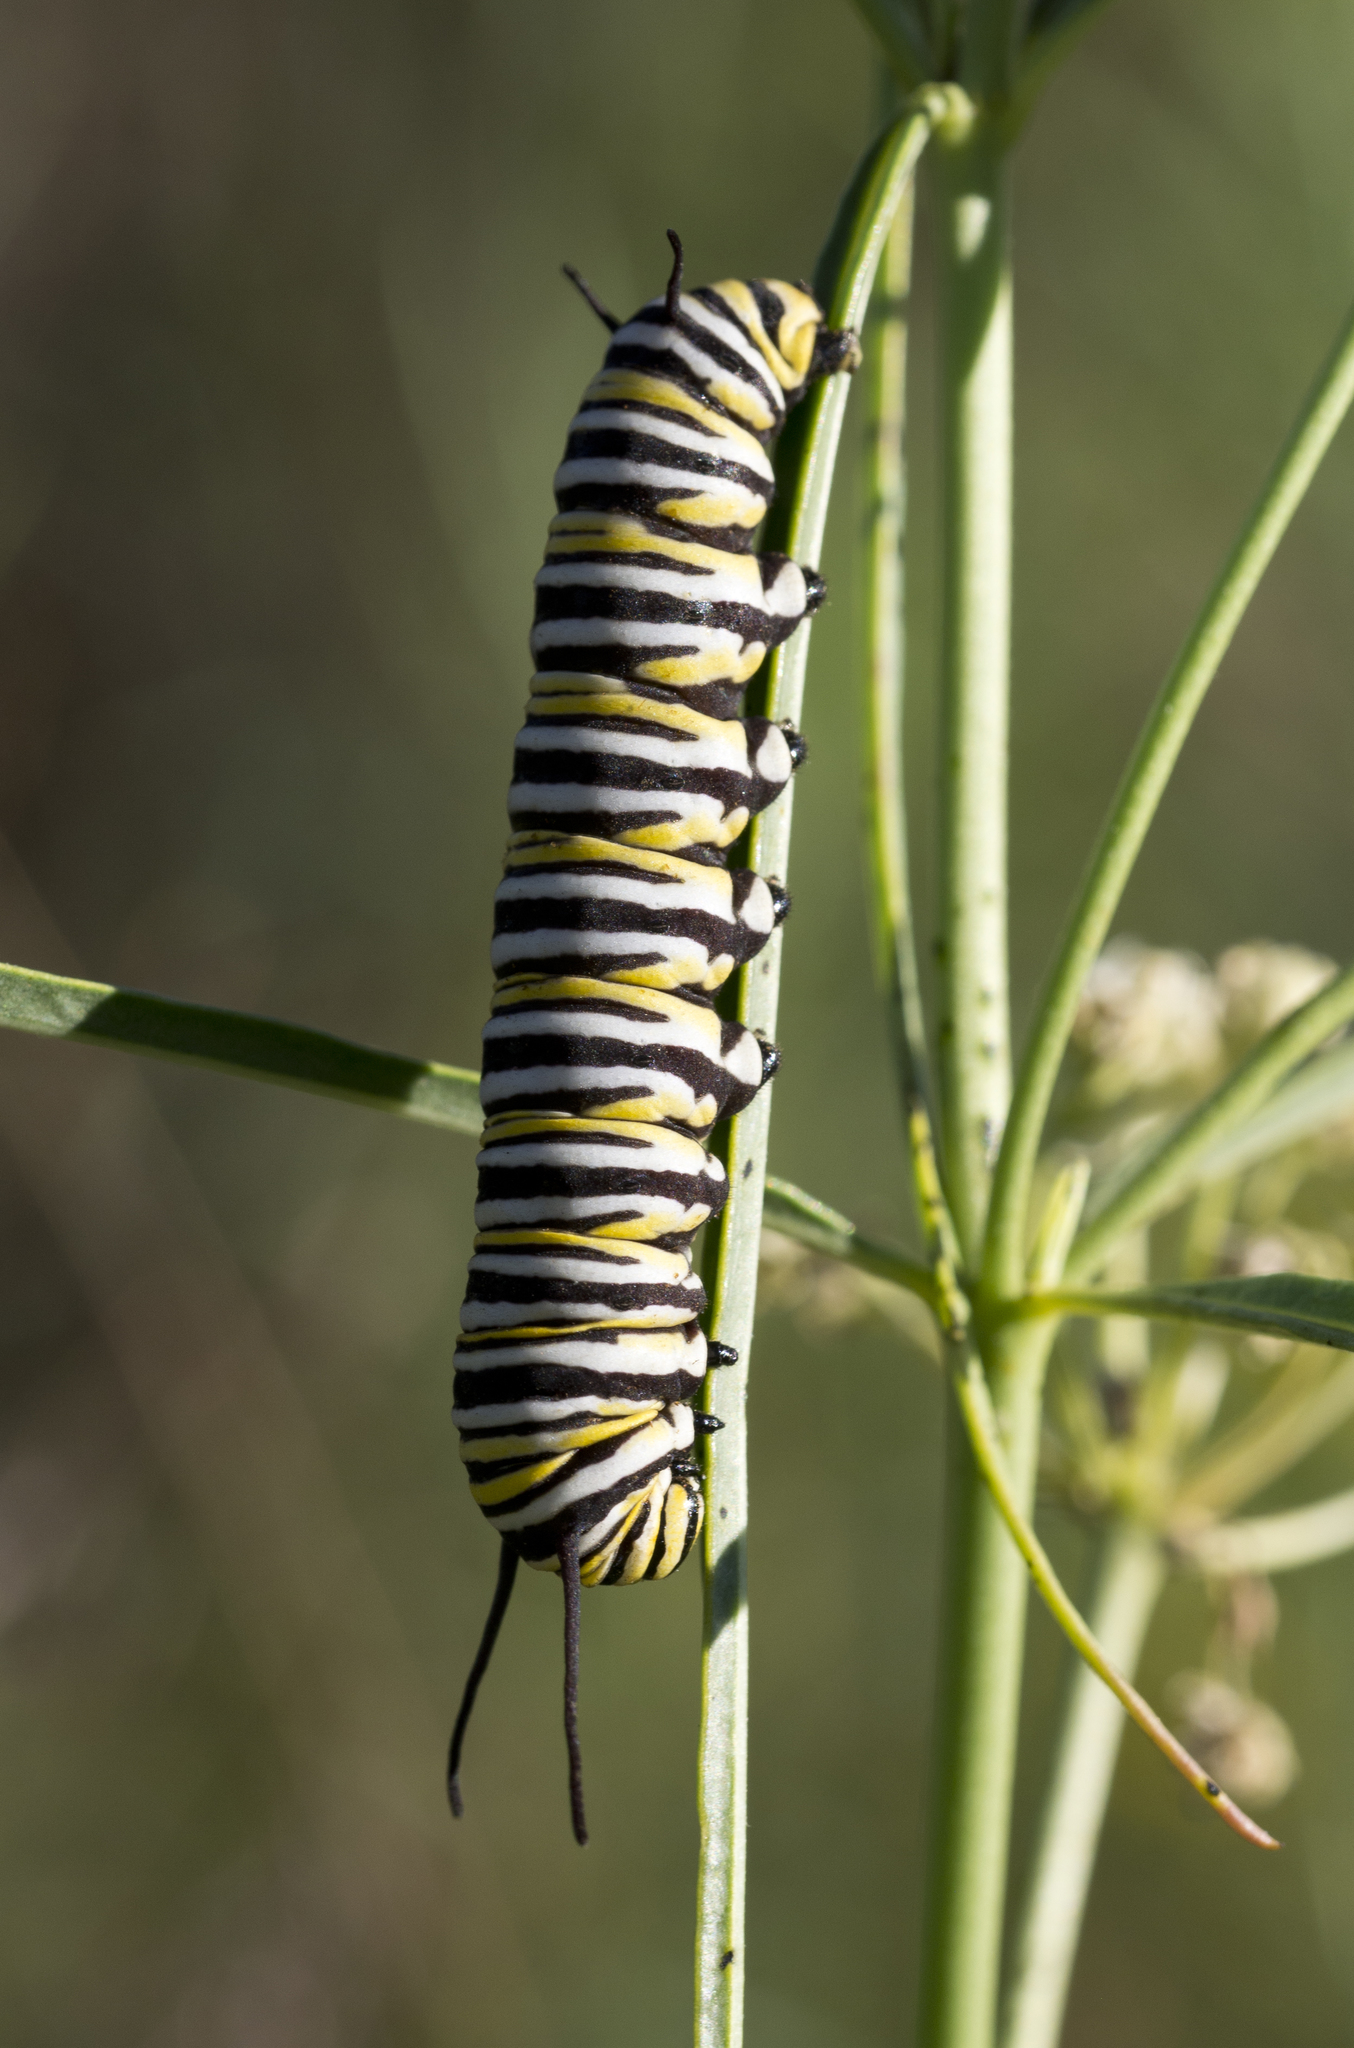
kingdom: Animalia
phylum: Arthropoda
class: Insecta
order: Lepidoptera
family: Nymphalidae
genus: Danaus
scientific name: Danaus plexippus
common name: Monarch
